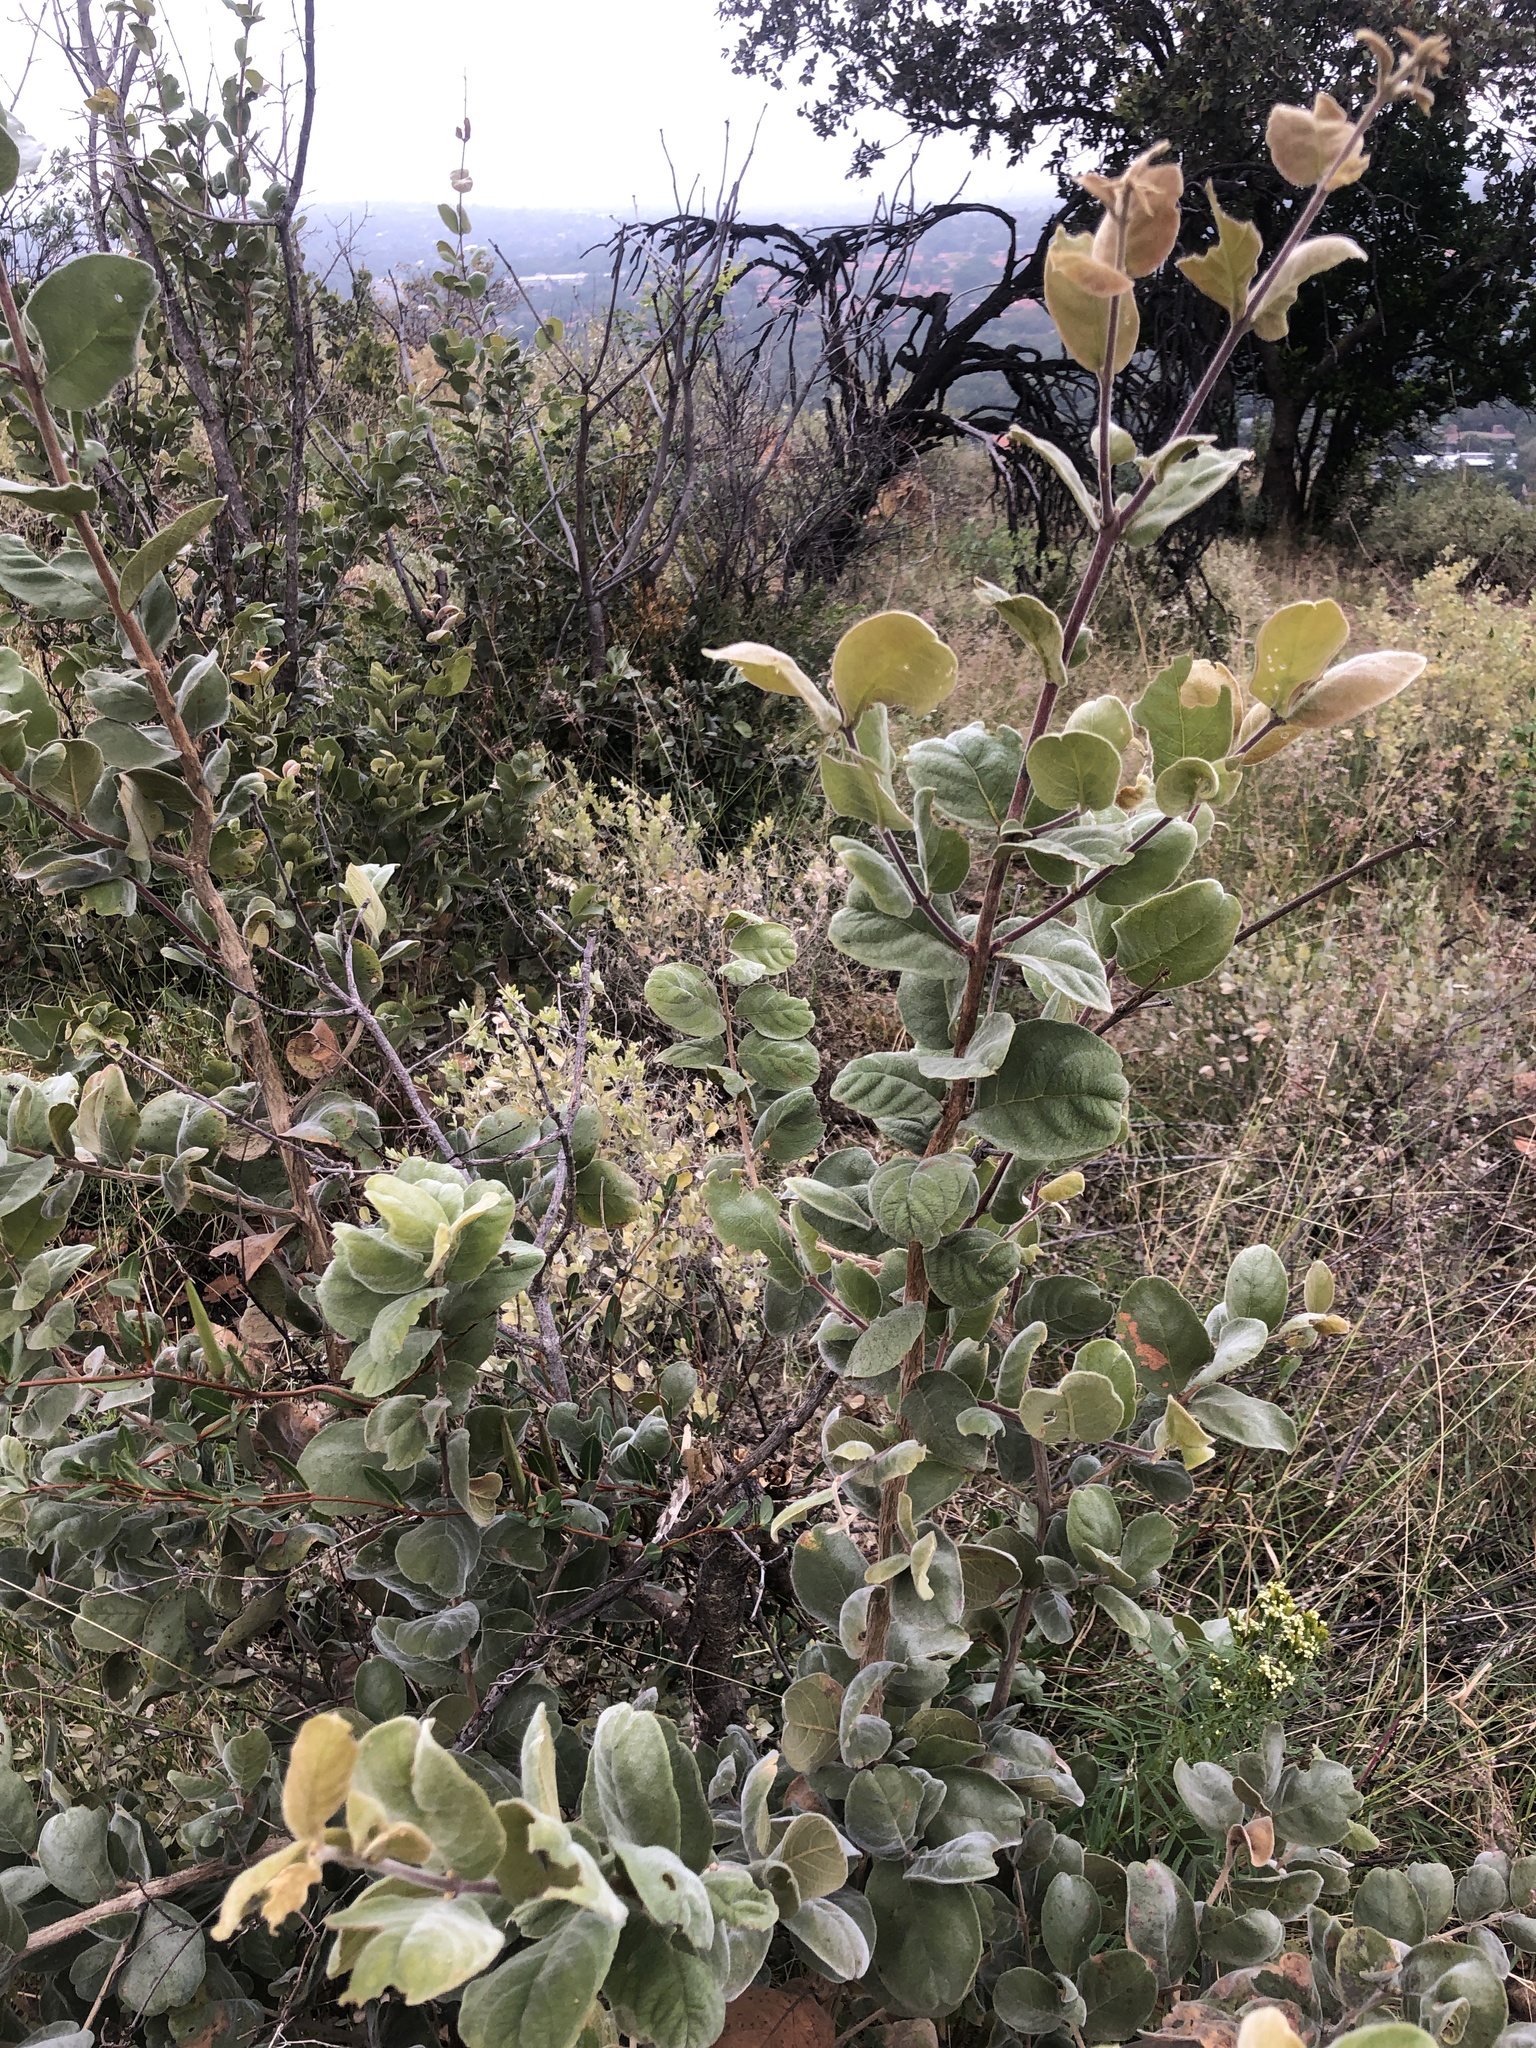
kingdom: Plantae
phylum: Tracheophyta
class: Magnoliopsida
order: Myrtales
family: Combretaceae
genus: Combretum
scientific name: Combretum molle
